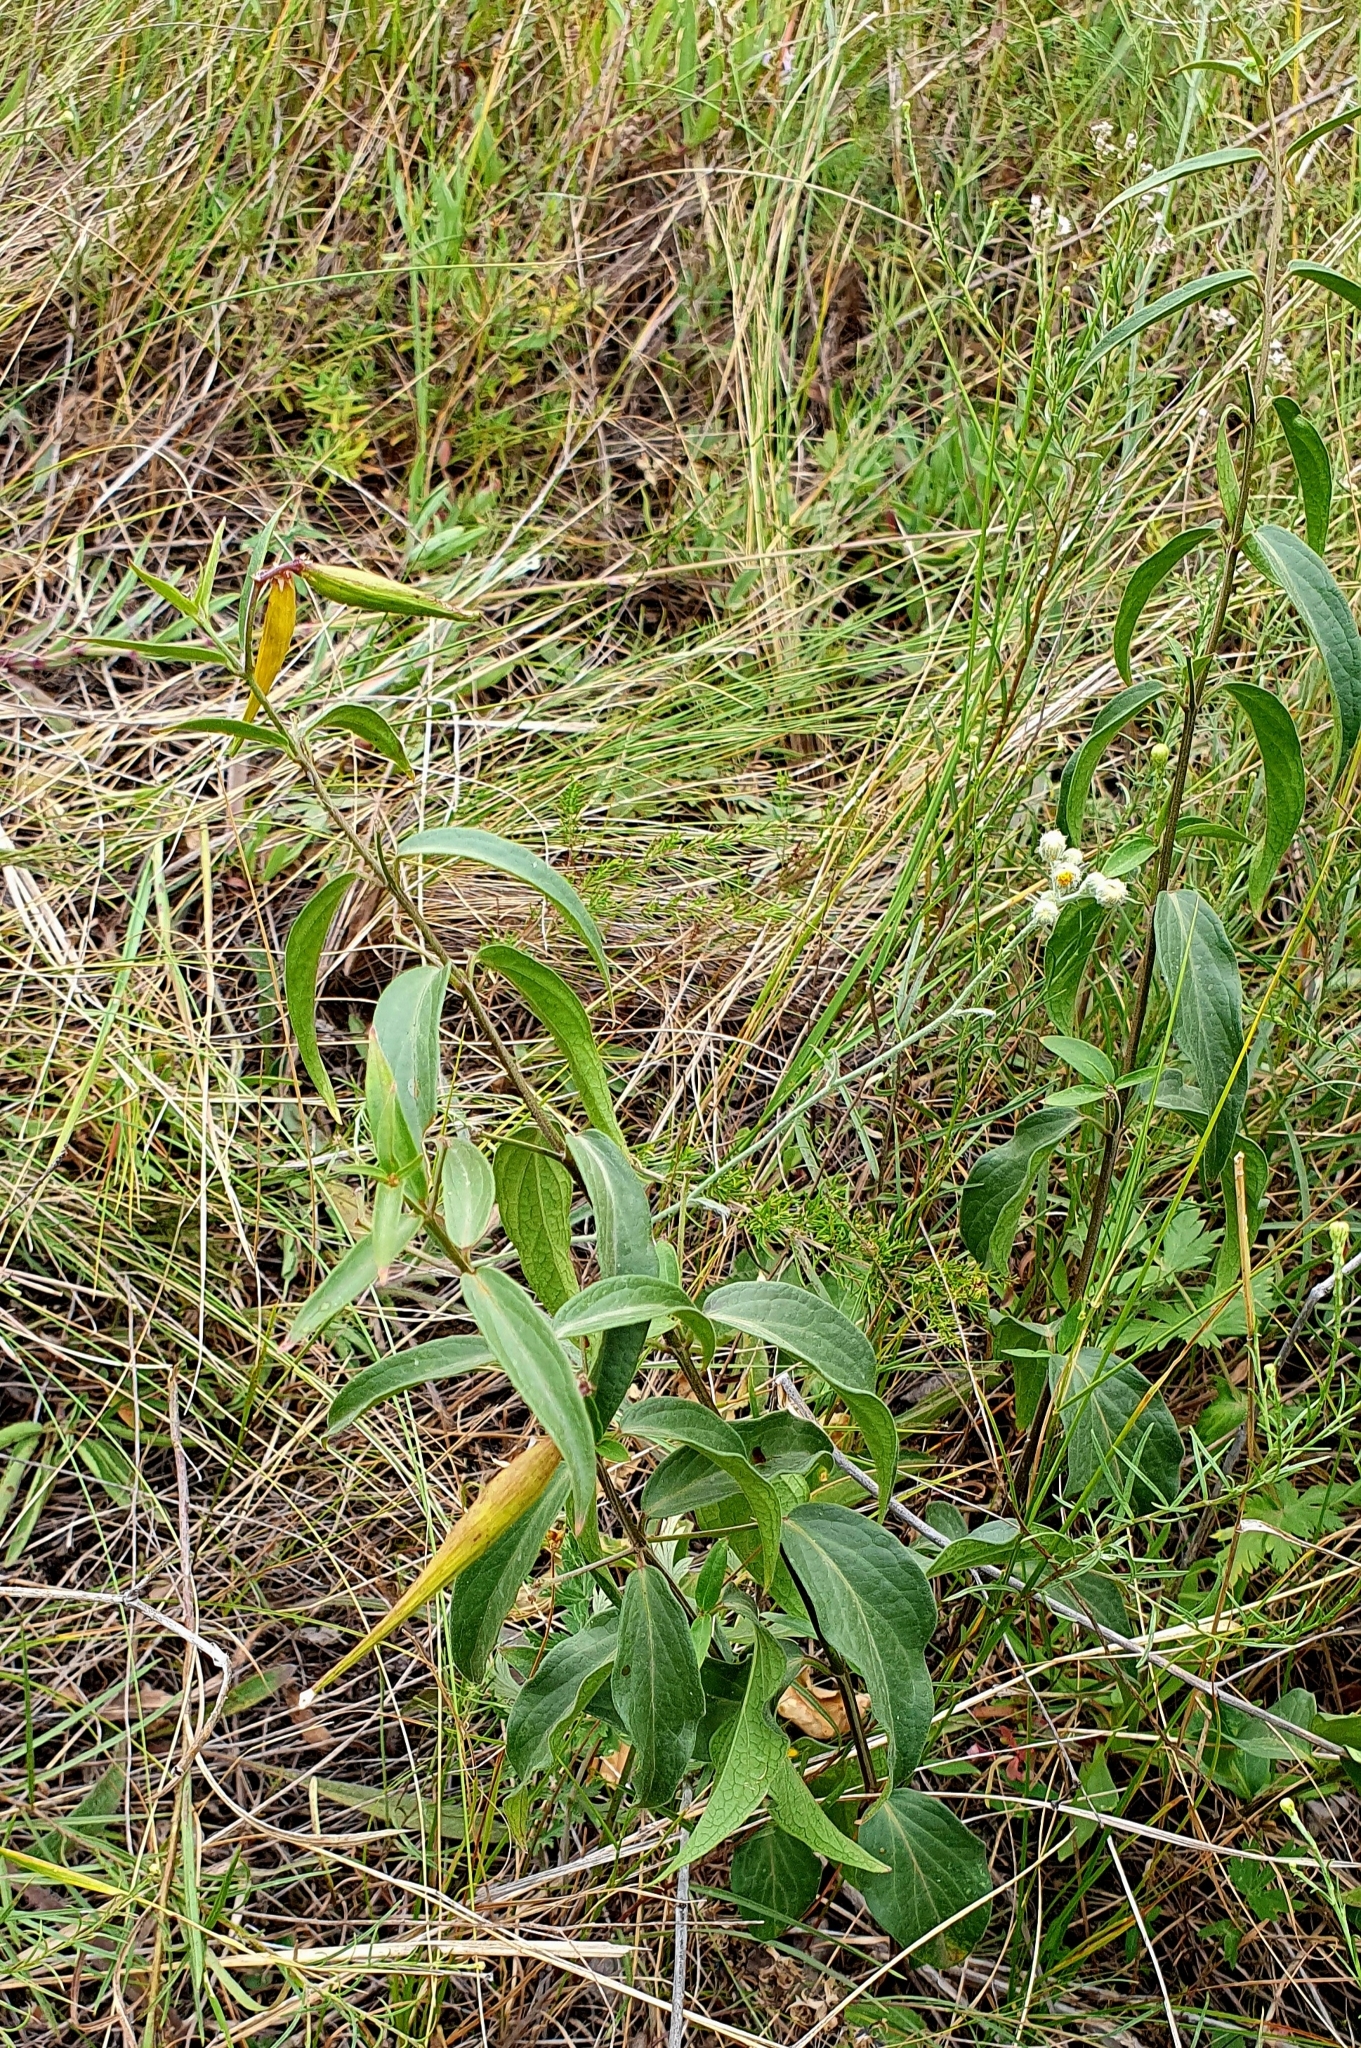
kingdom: Plantae
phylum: Tracheophyta
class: Magnoliopsida
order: Gentianales
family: Apocynaceae
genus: Vincetoxicum
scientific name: Vincetoxicum hirundinaria
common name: White swallowwort
